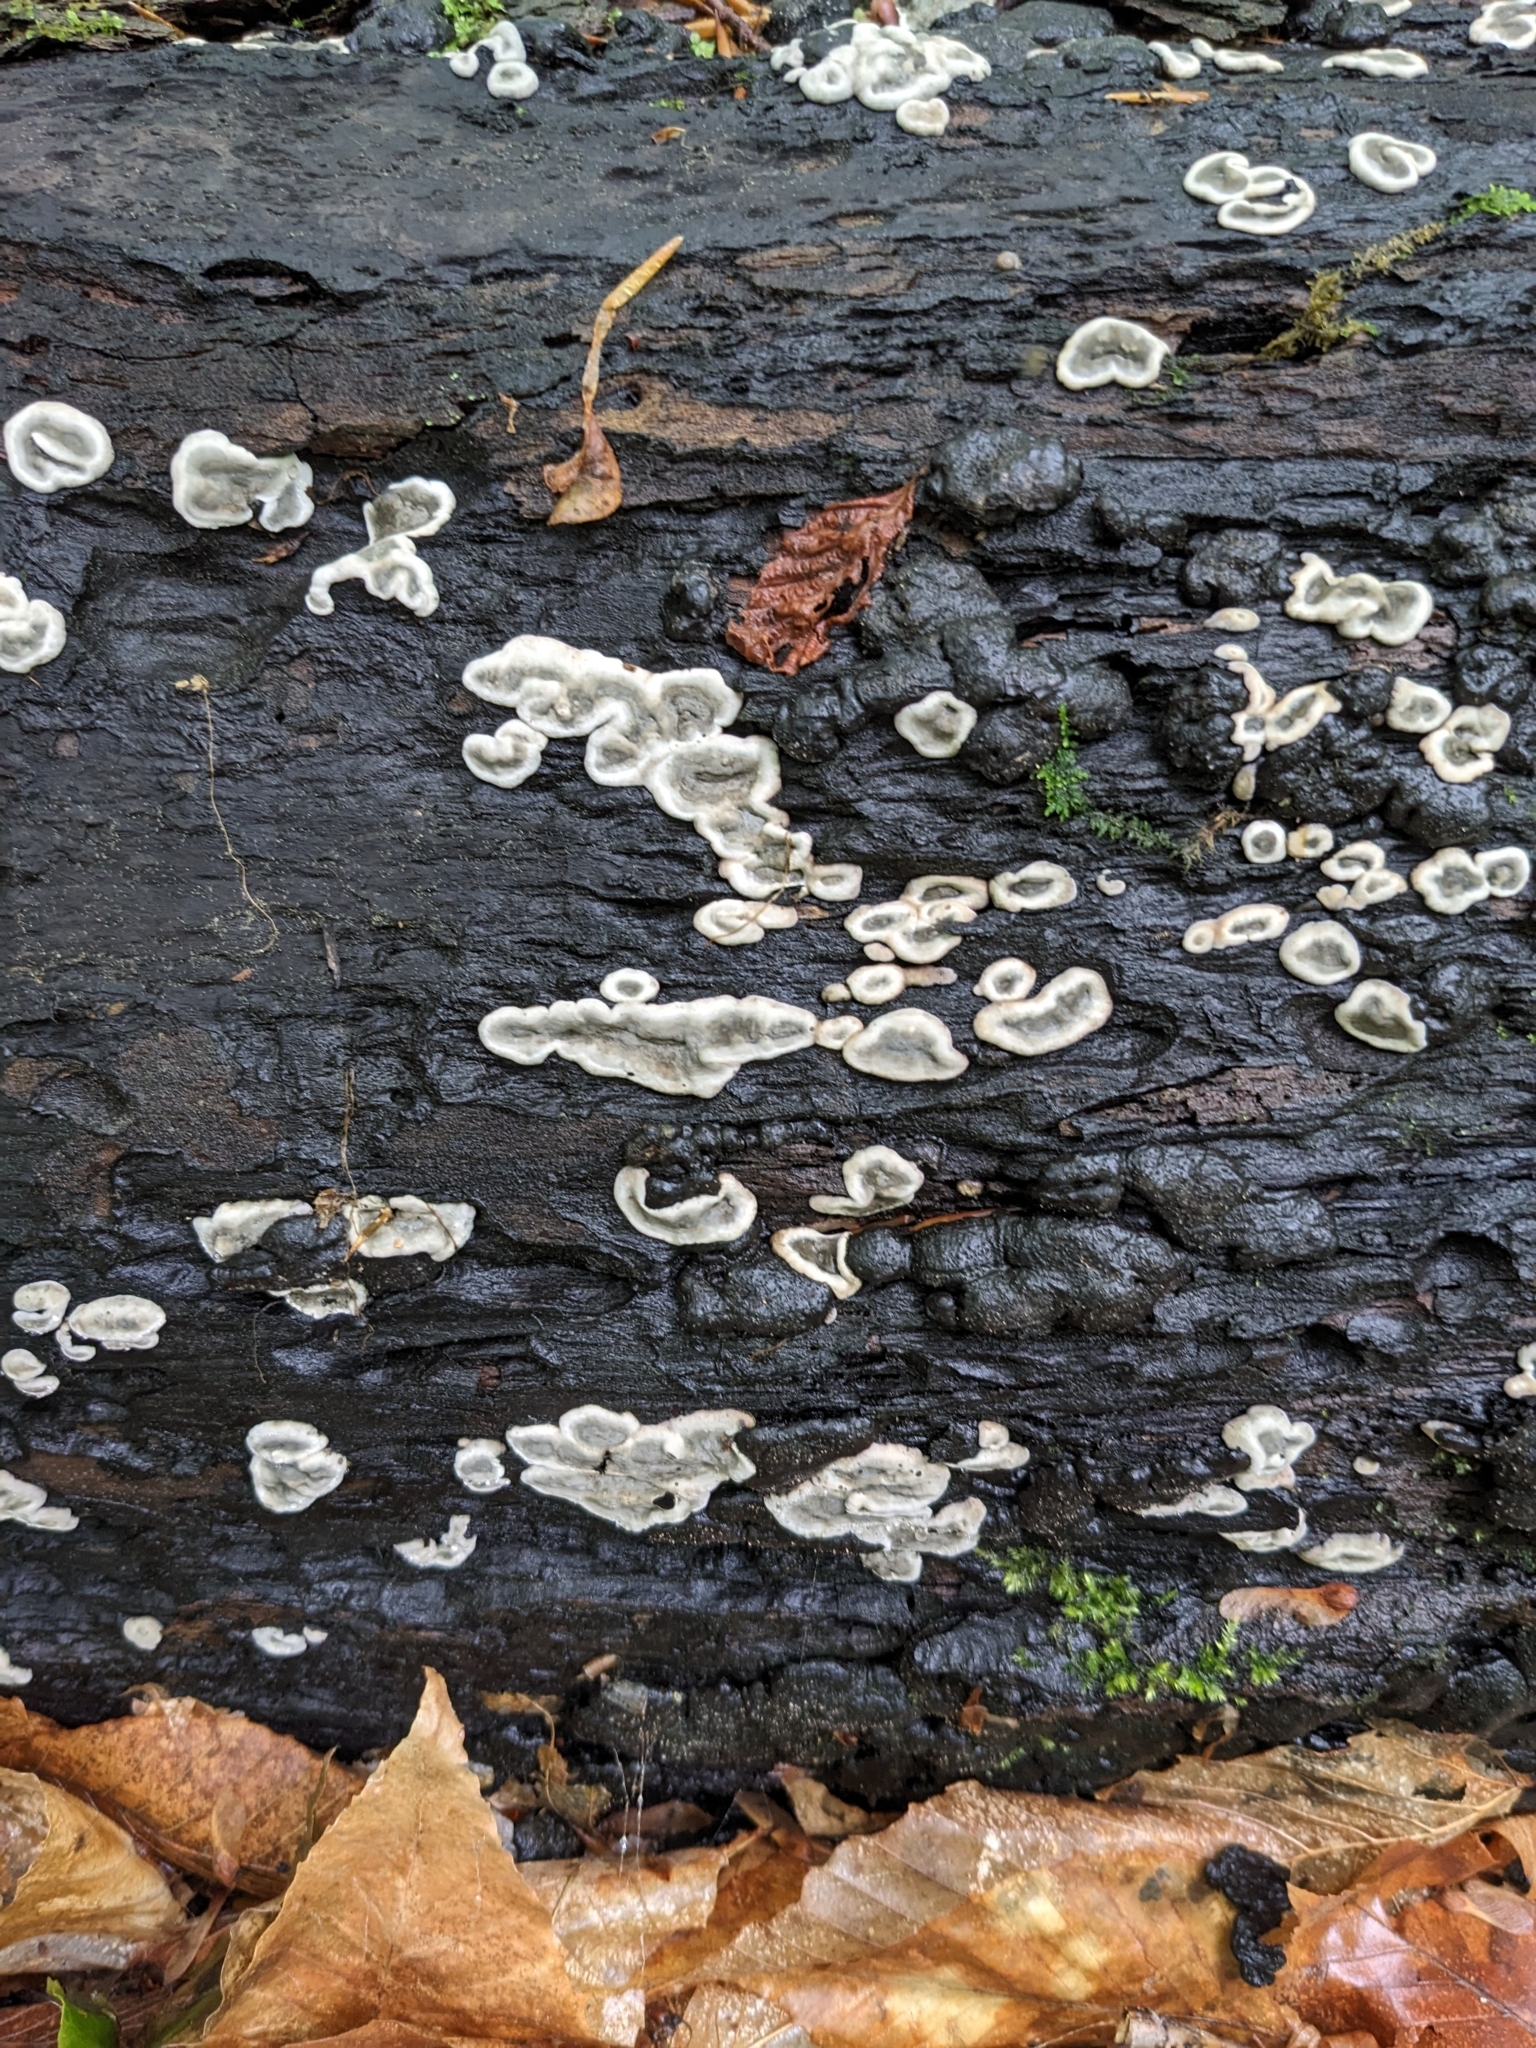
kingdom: Fungi
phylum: Ascomycota
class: Sordariomycetes
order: Xylariales
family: Xylariaceae
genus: Kretzschmaria
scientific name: Kretzschmaria deusta
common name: Brittle cinder
